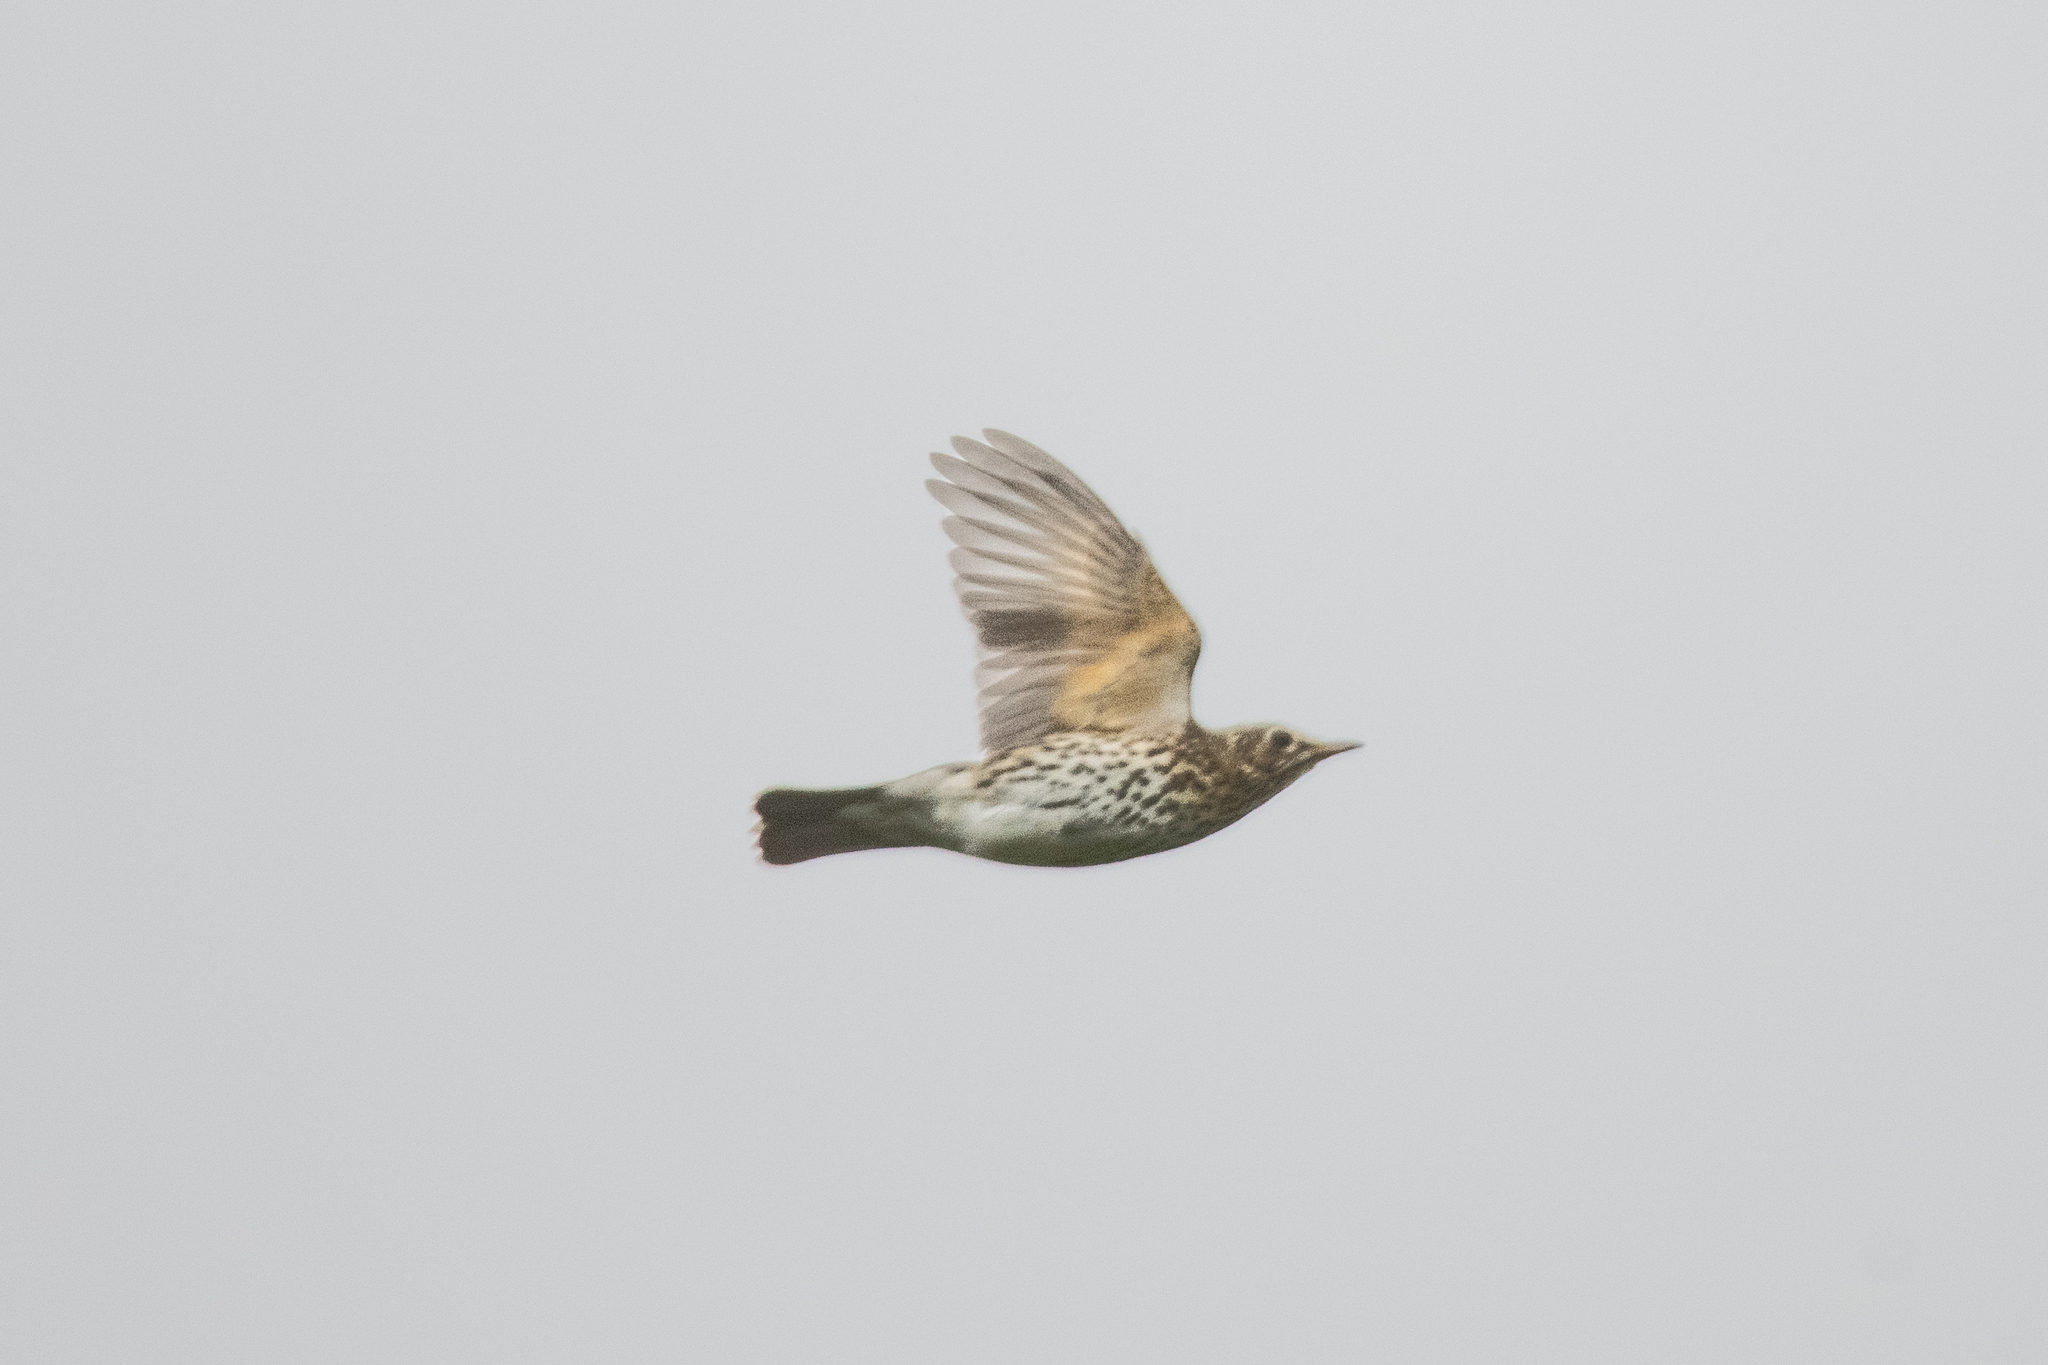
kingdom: Animalia
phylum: Chordata
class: Aves
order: Passeriformes
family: Turdidae
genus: Turdus
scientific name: Turdus philomelos
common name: Song thrush
